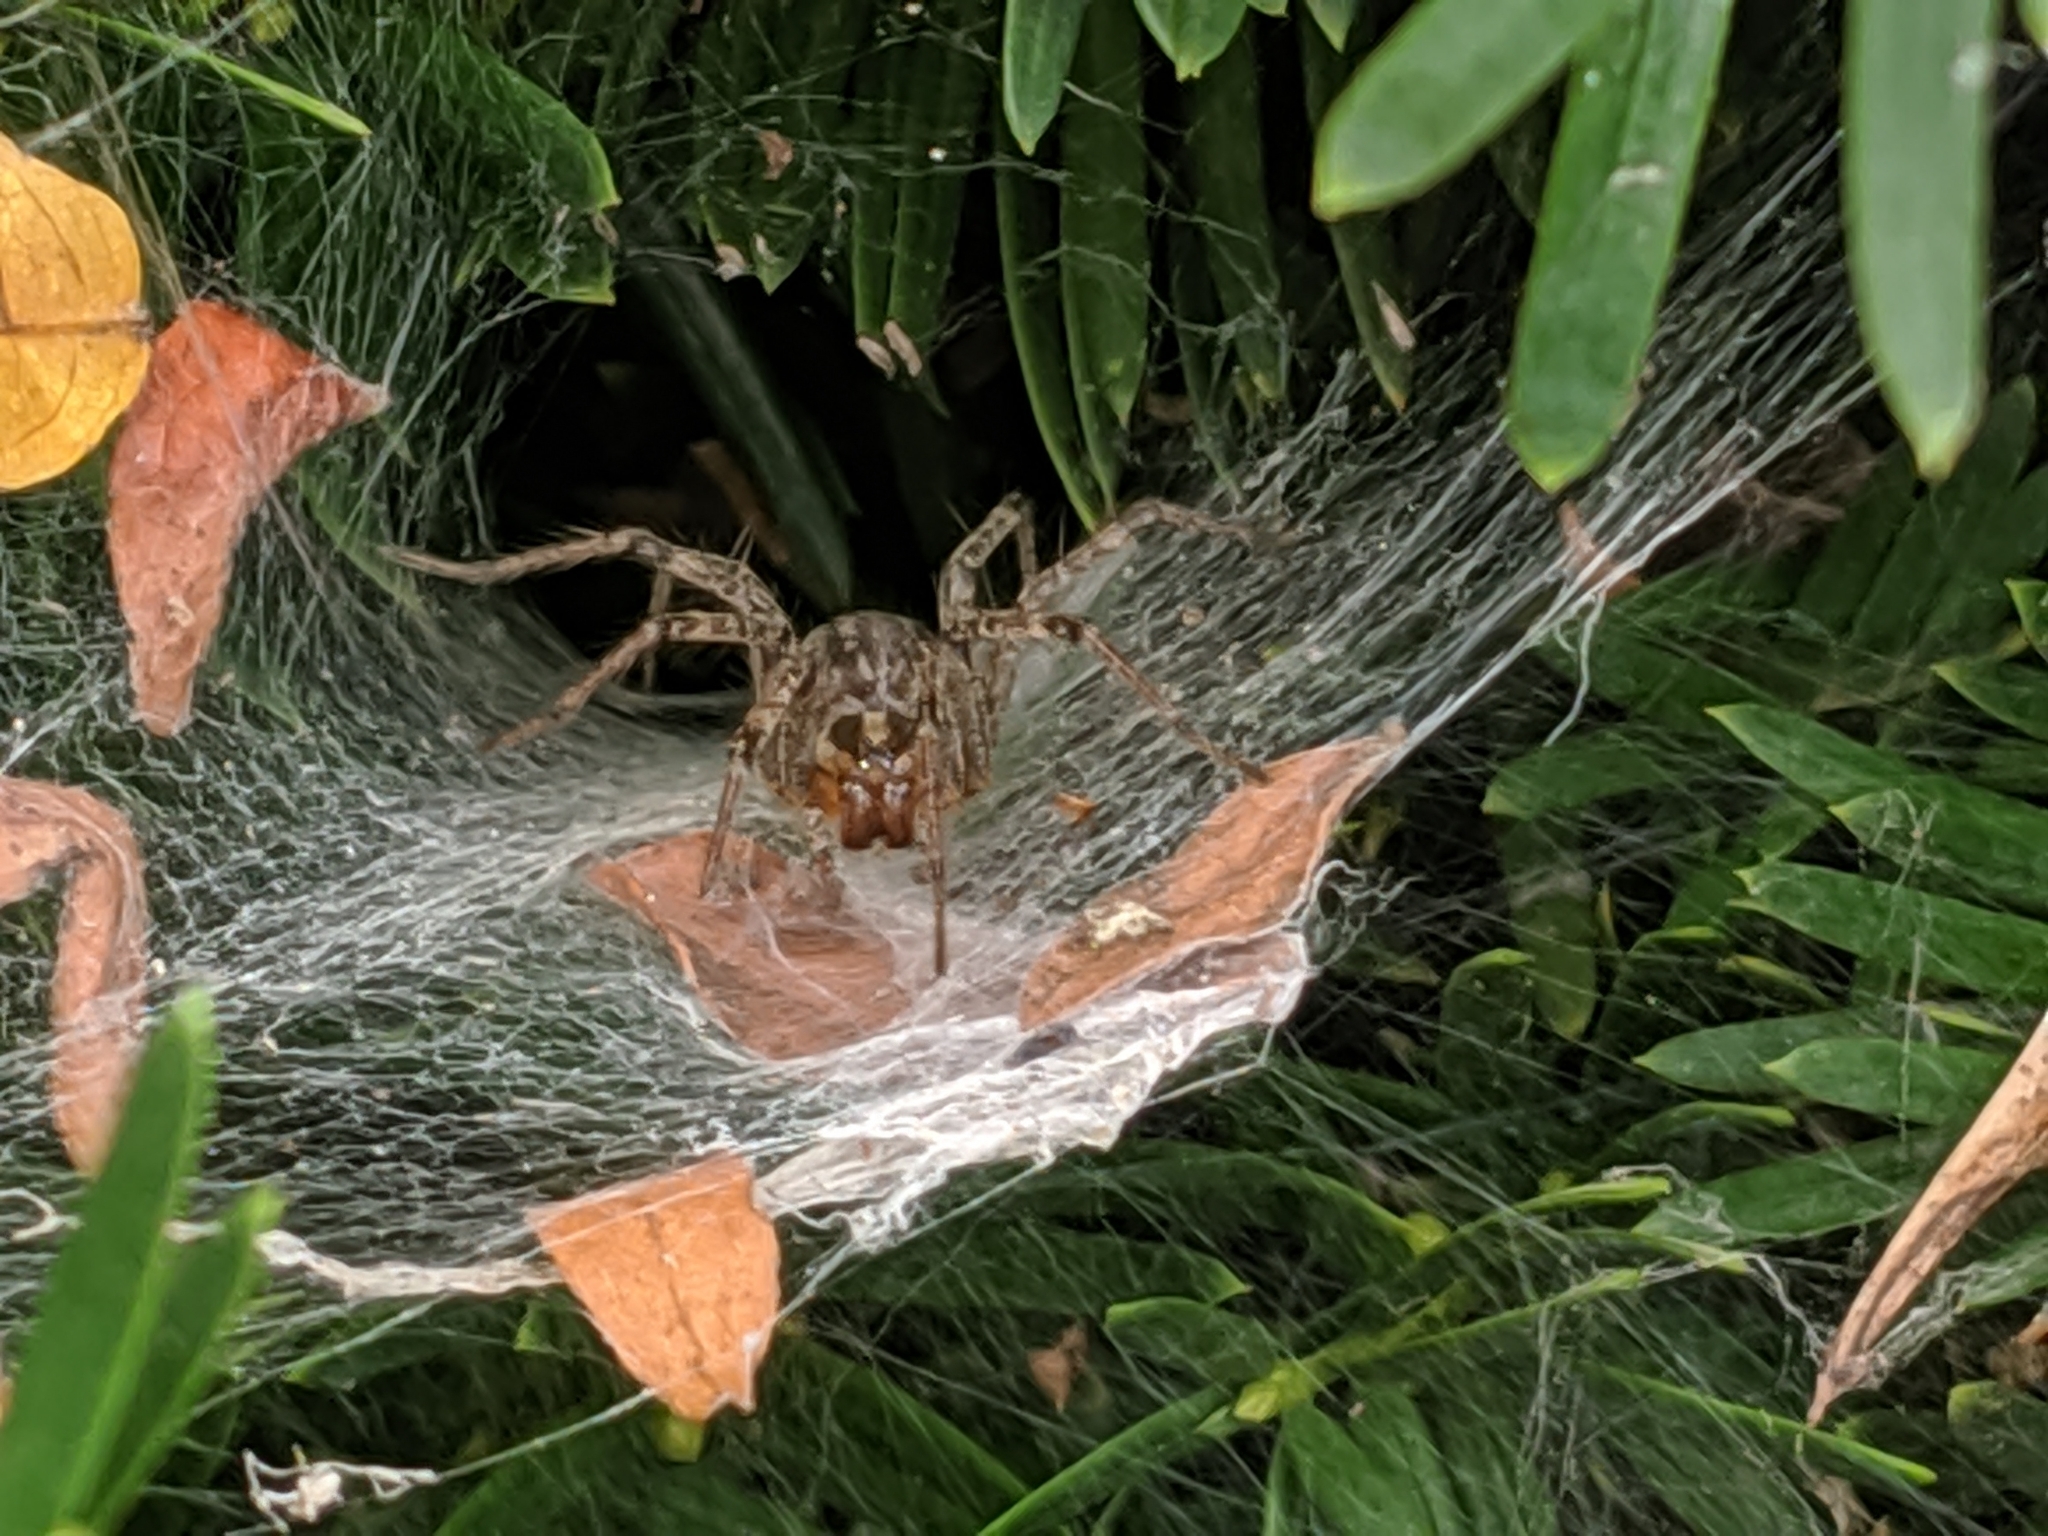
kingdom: Animalia
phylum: Arthropoda
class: Arachnida
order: Araneae
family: Agelenidae
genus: Agelenopsis
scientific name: Agelenopsis
